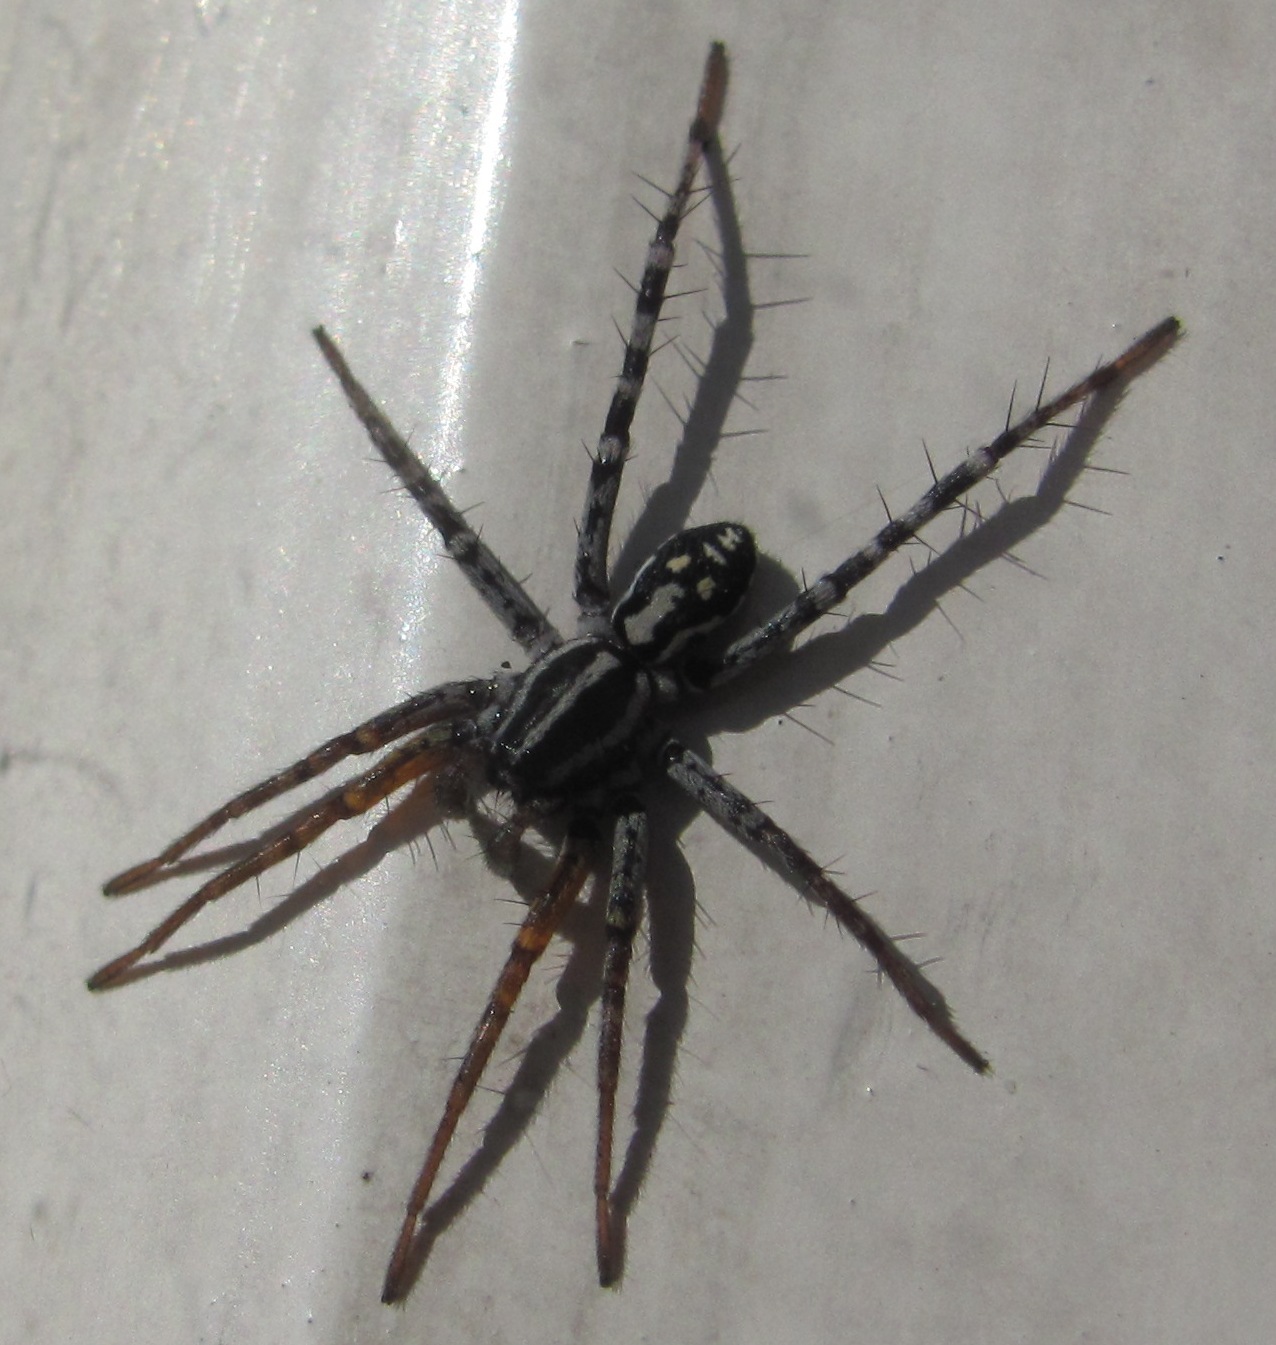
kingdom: Animalia
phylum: Arthropoda
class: Arachnida
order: Araneae
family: Corinnidae
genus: Nyssus
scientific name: Nyssus coloripes
